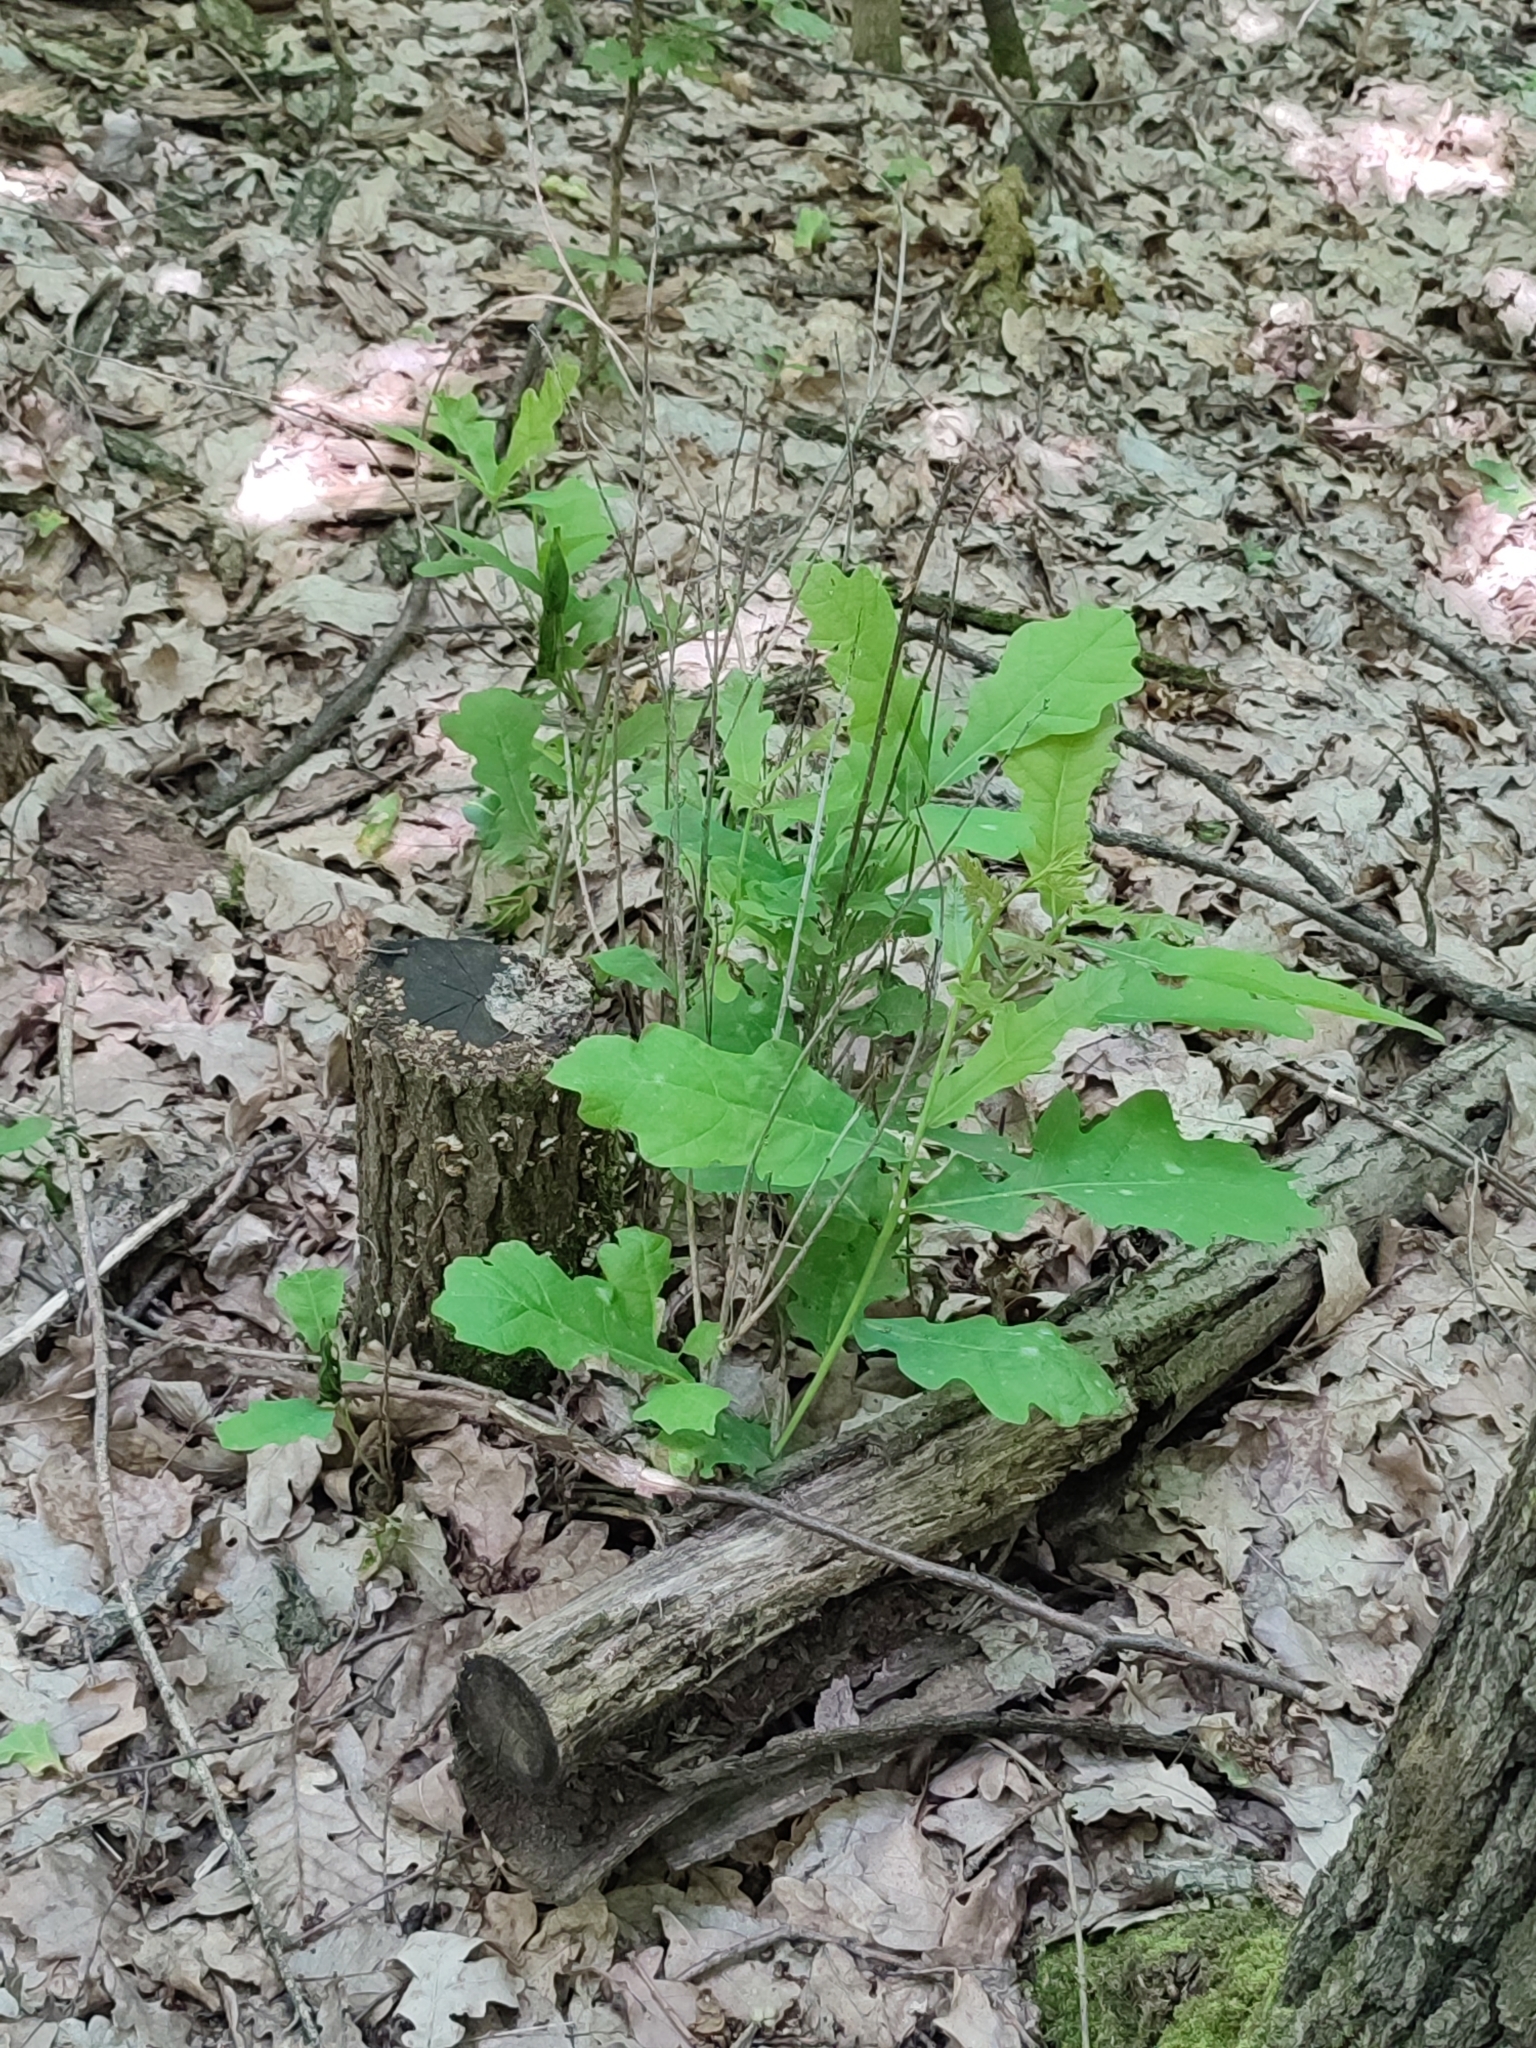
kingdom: Plantae
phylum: Tracheophyta
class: Magnoliopsida
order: Fagales
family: Fagaceae
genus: Quercus
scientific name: Quercus robur
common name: Pedunculate oak
